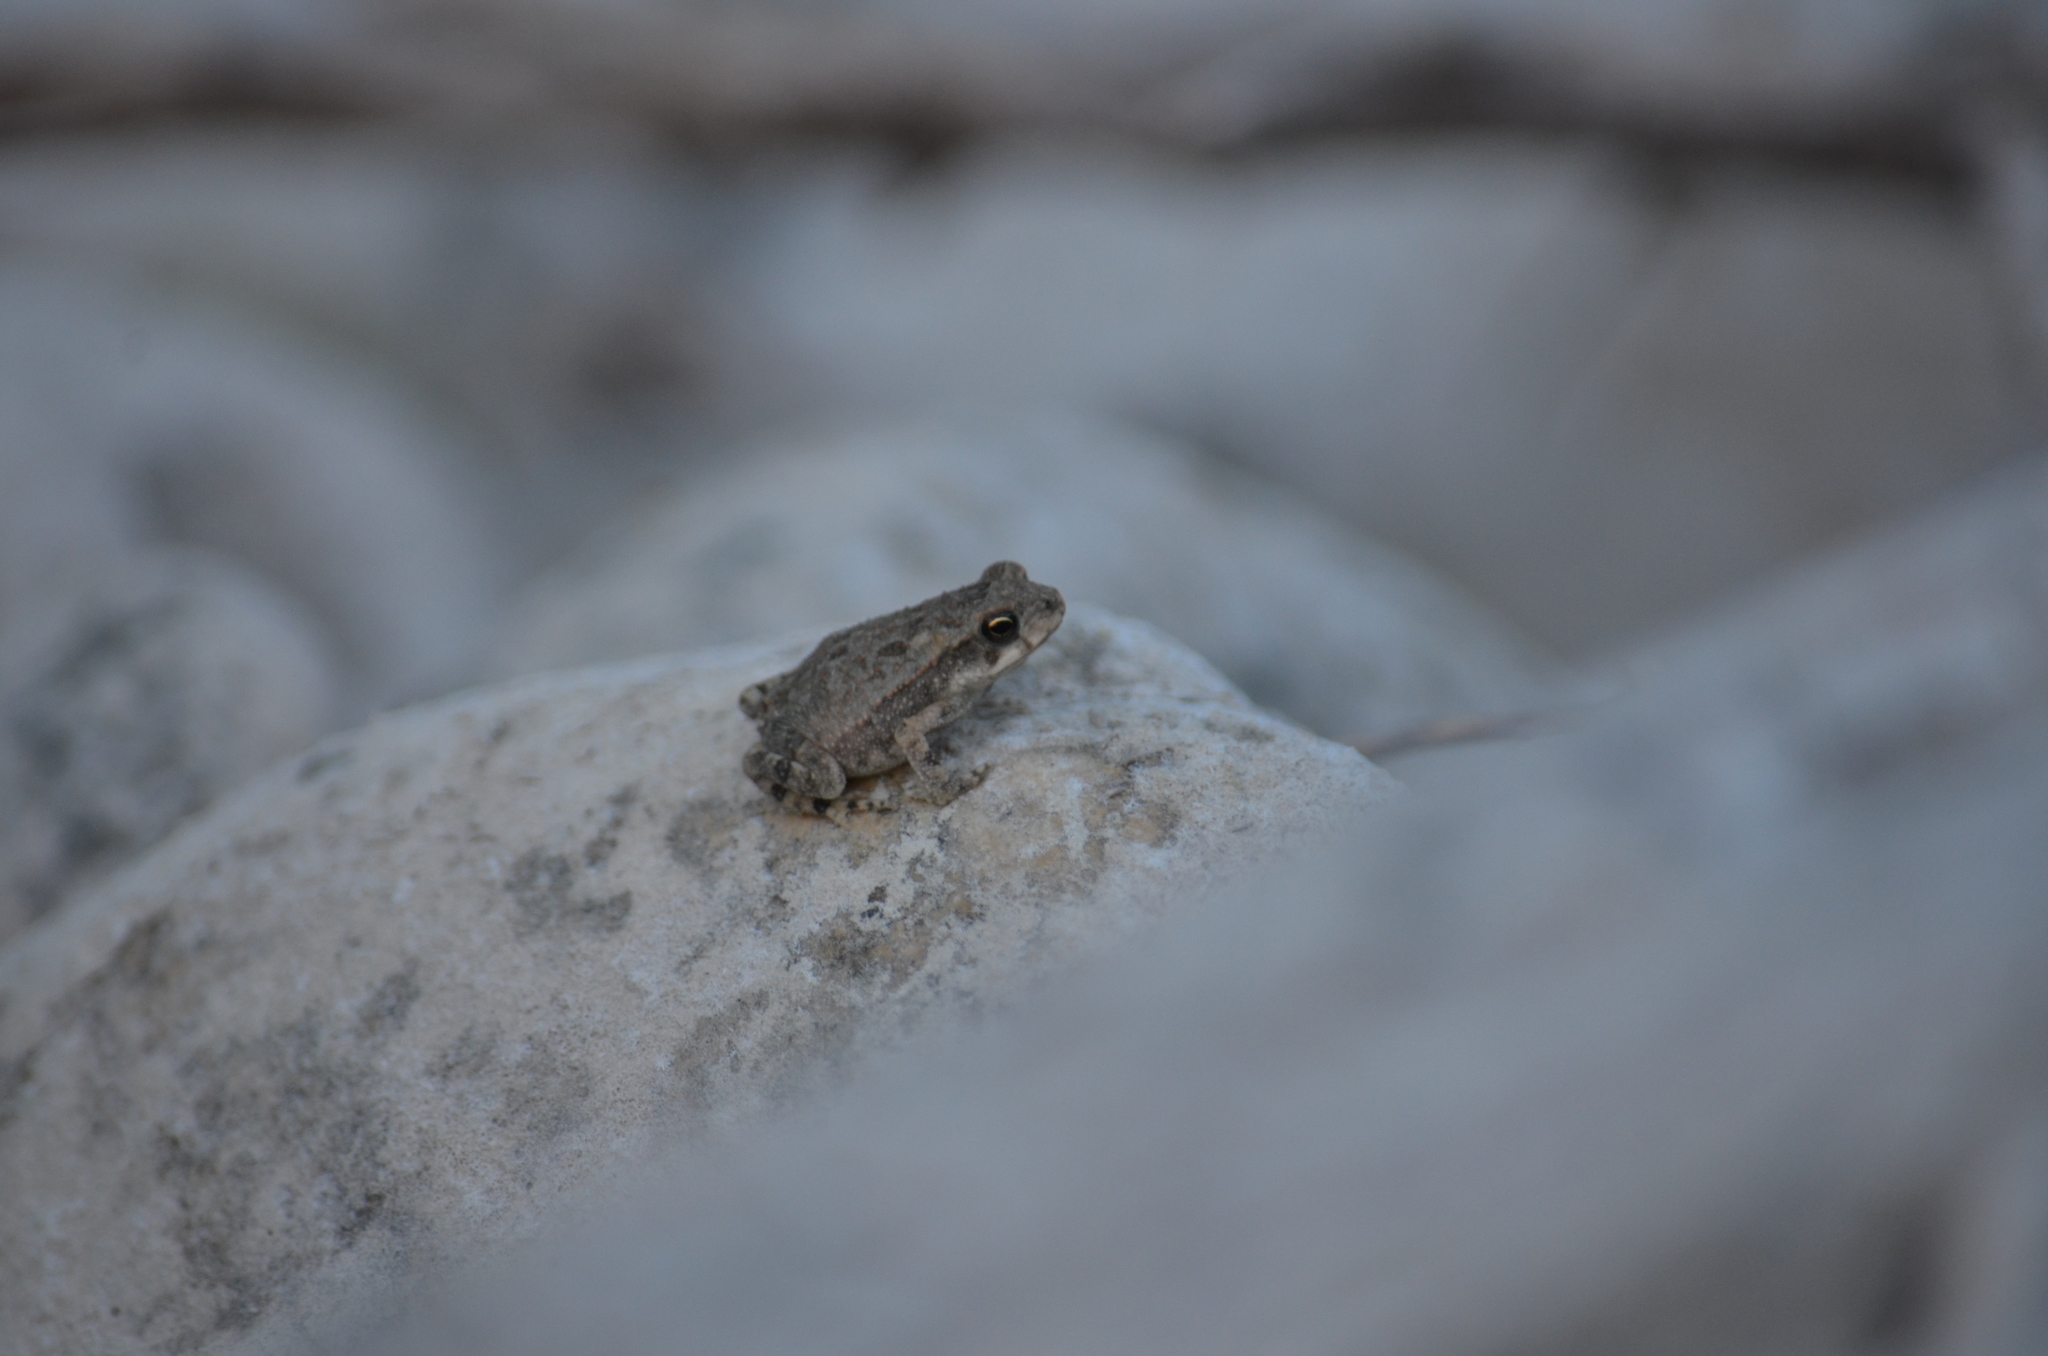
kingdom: Animalia
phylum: Chordata
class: Amphibia
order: Anura
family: Bufonidae
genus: Incilius
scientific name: Incilius nebulifer
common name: Gulf coast toad
